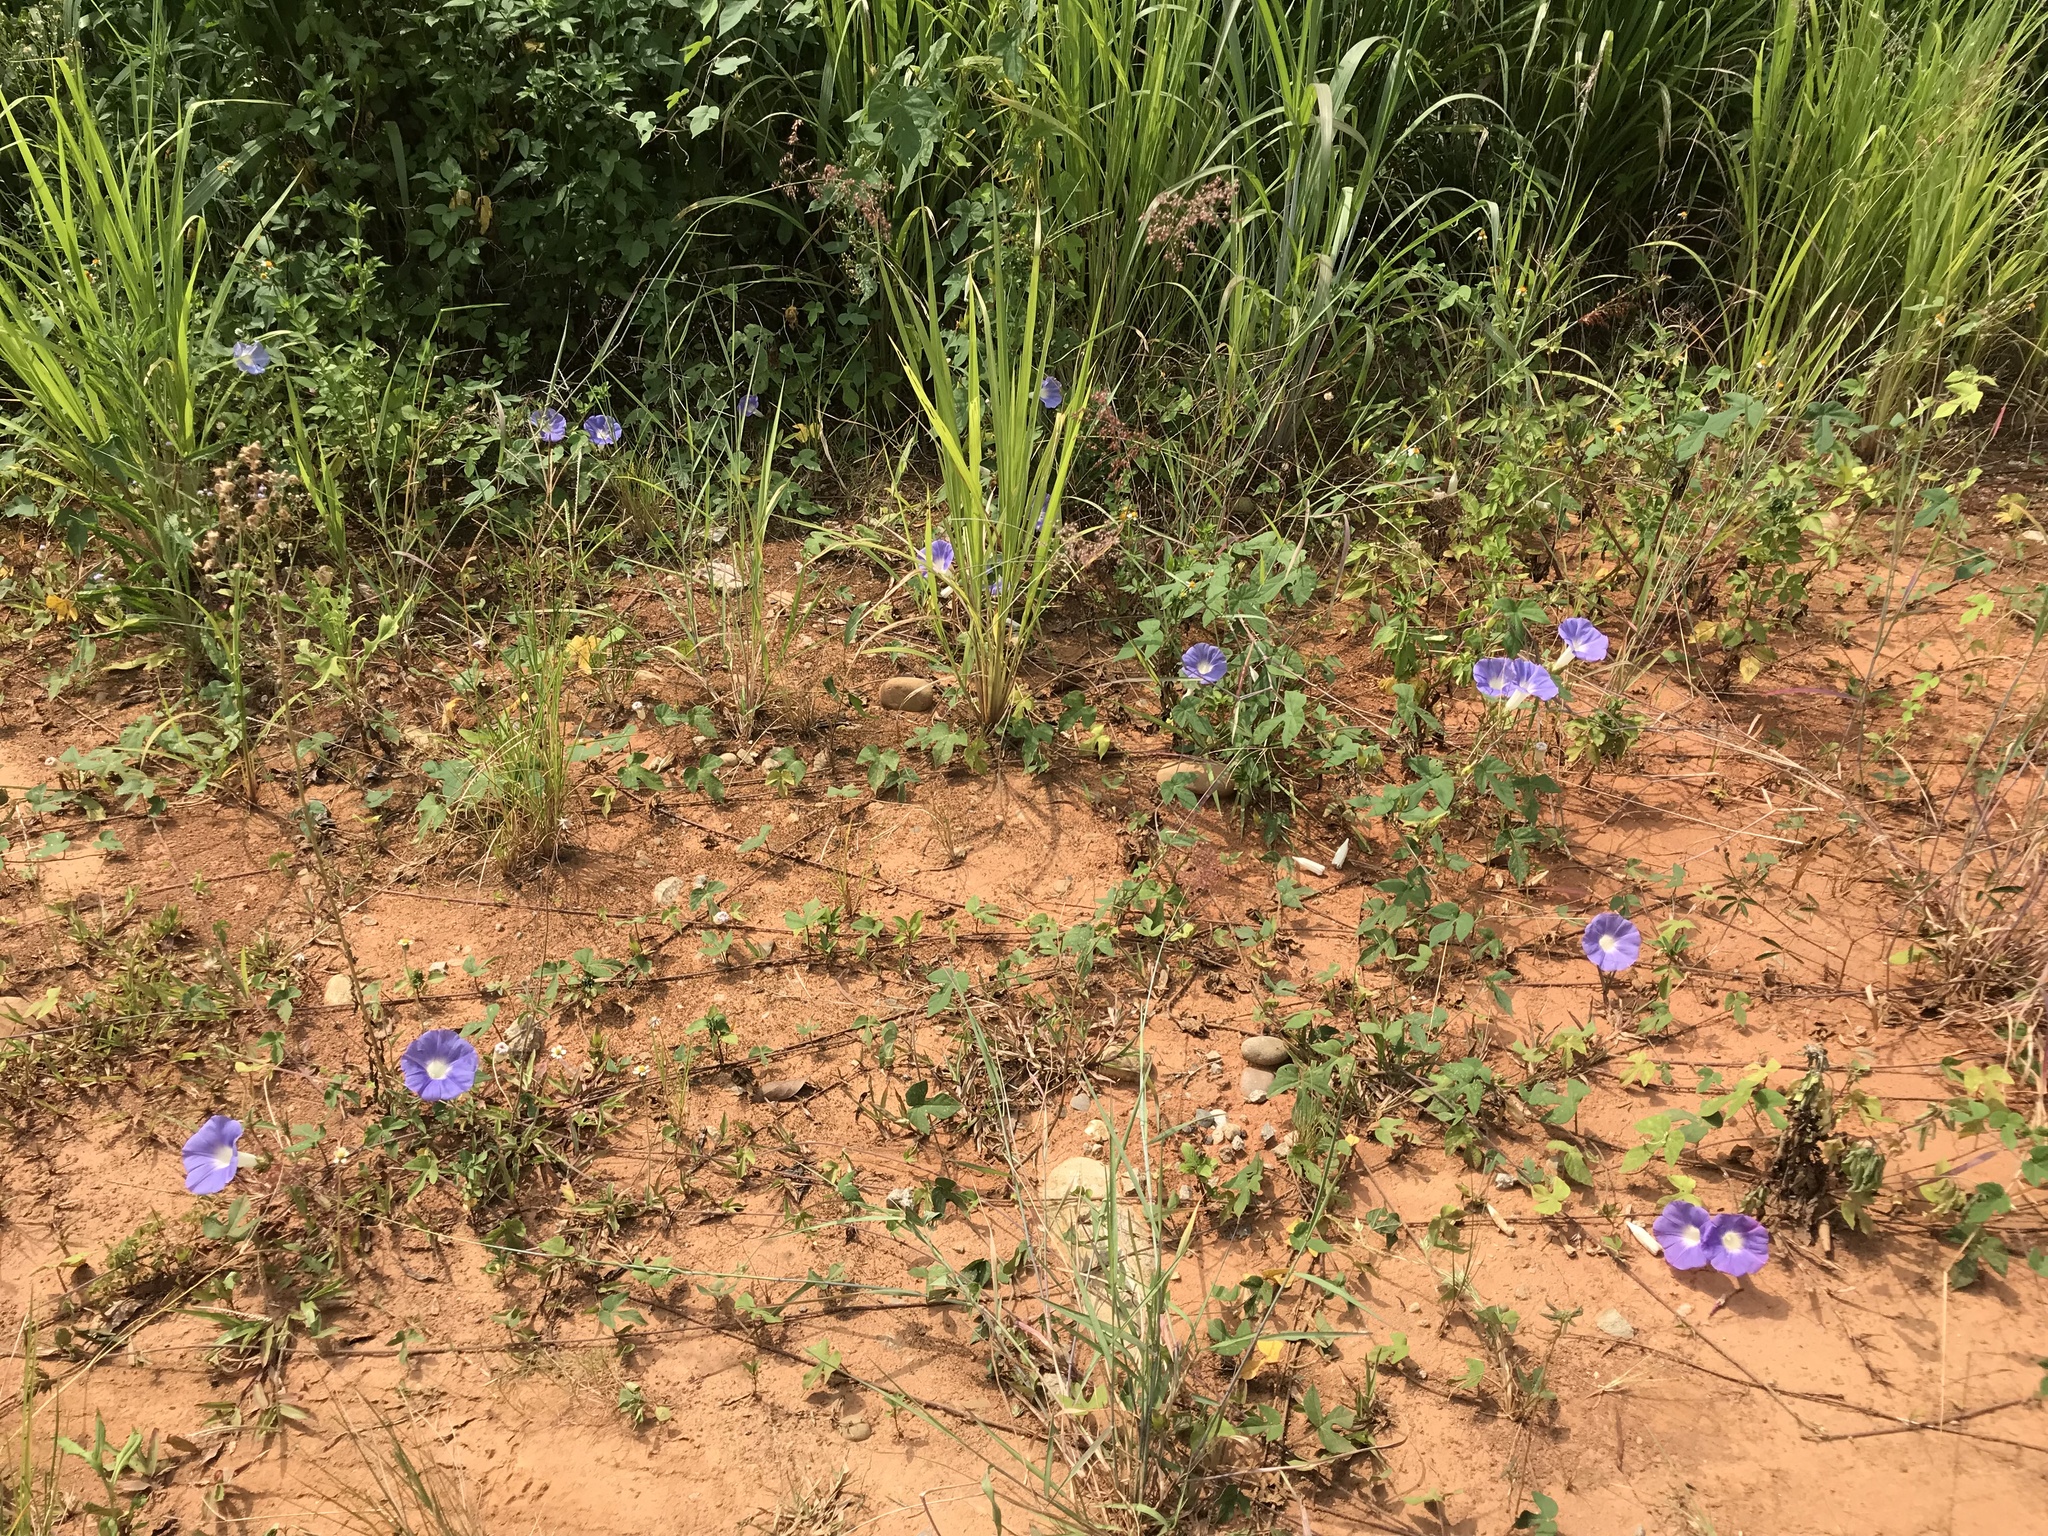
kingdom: Plantae
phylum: Tracheophyta
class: Magnoliopsida
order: Solanales
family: Convolvulaceae
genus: Ipomoea
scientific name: Ipomoea indica
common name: Blue dawnflower
